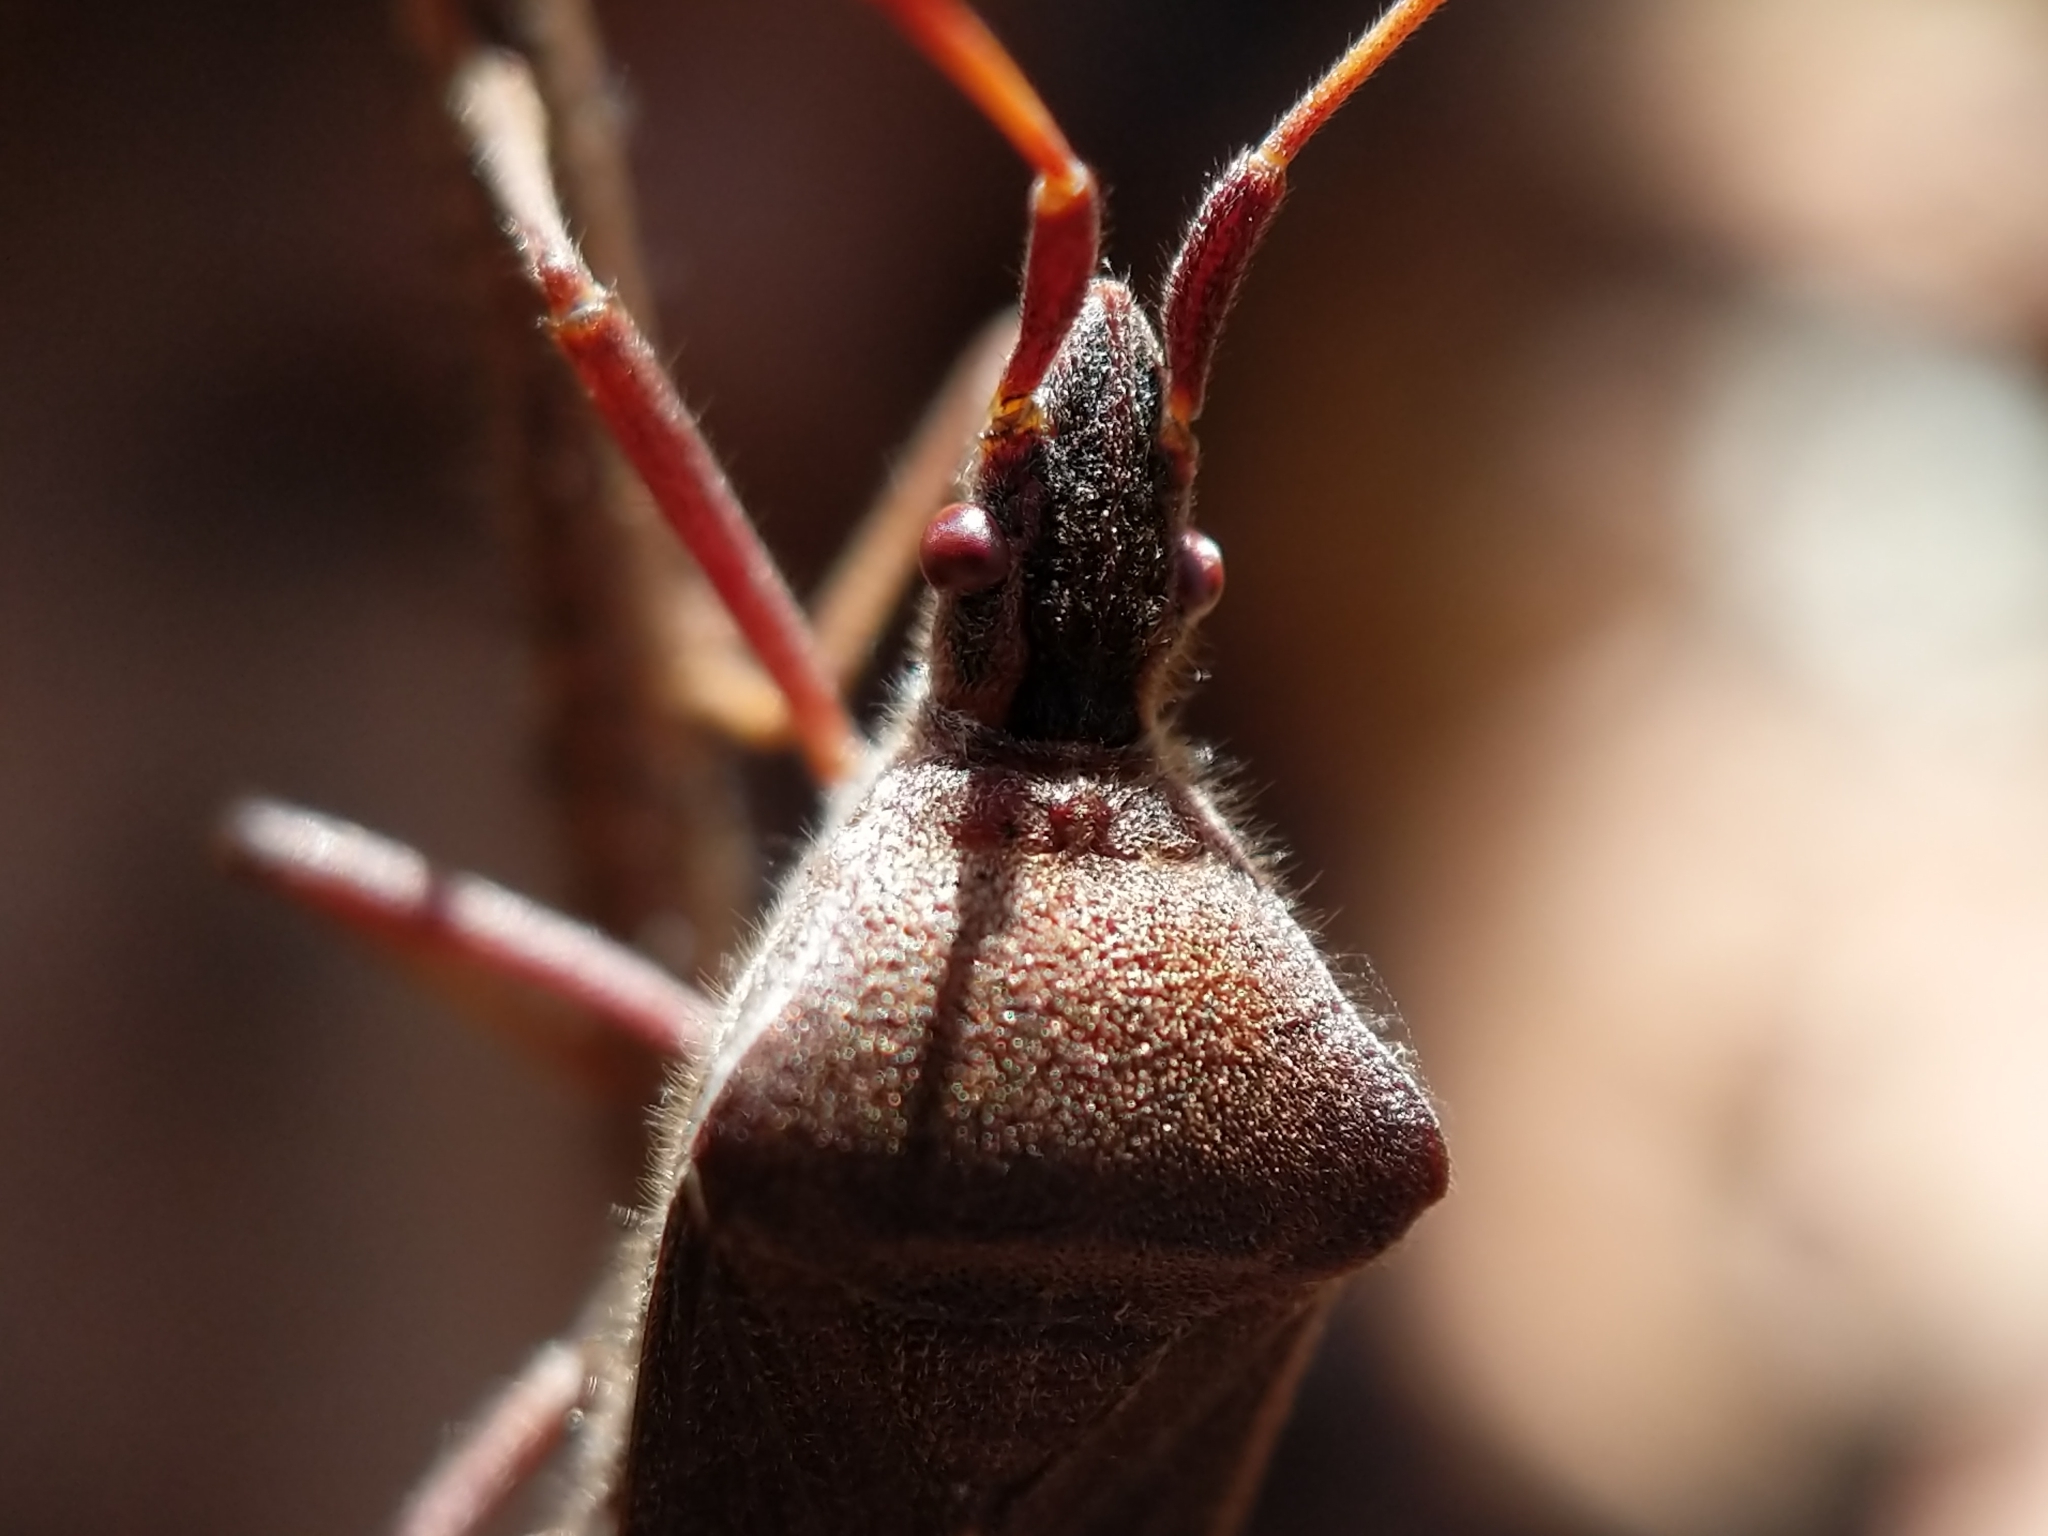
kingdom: Animalia
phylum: Arthropoda
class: Insecta
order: Hemiptera
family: Coreidae
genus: Leptoglossus
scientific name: Leptoglossus oppositus
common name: Northern leaf-footed bug
